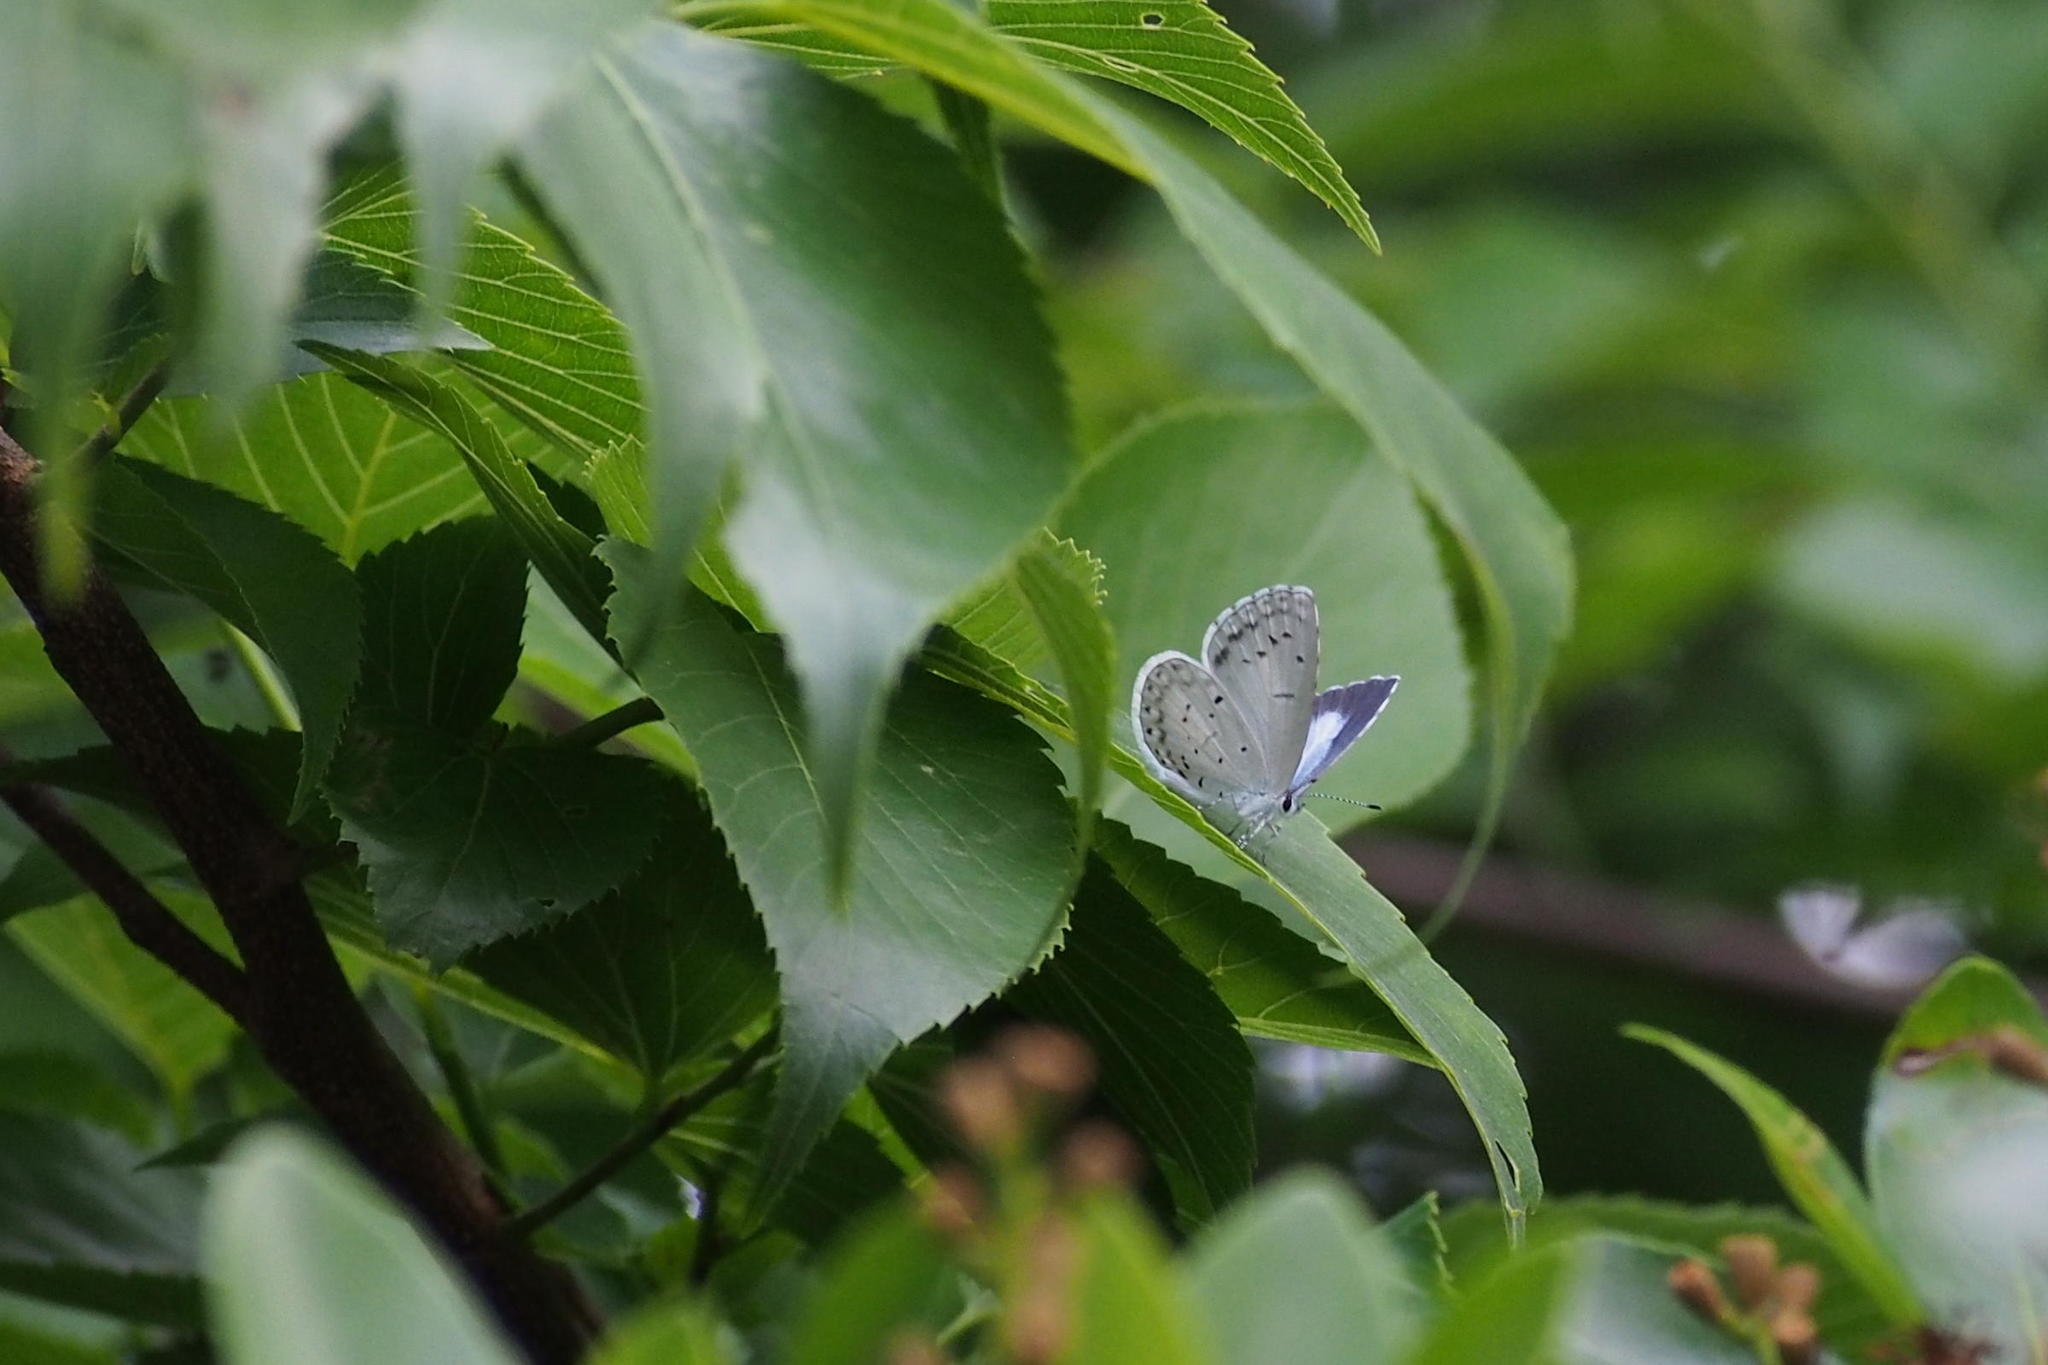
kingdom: Animalia
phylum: Arthropoda
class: Insecta
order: Lepidoptera
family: Lycaenidae
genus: Celastrina
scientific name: Celastrina argiolus
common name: Holly blue
